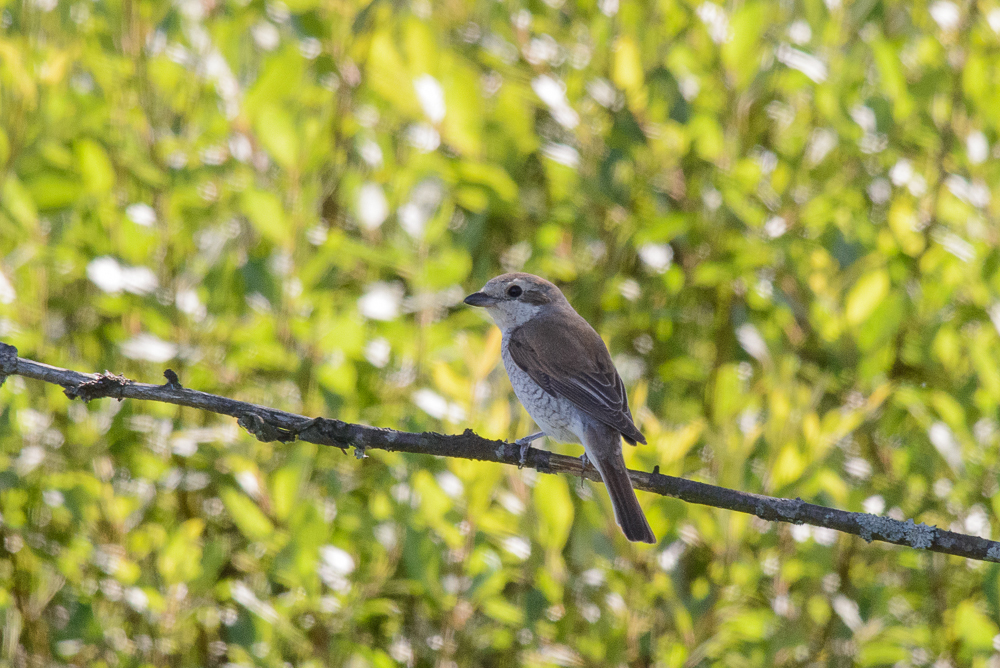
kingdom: Animalia
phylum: Chordata
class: Aves
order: Passeriformes
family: Laniidae
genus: Lanius
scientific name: Lanius collurio
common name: Red-backed shrike
